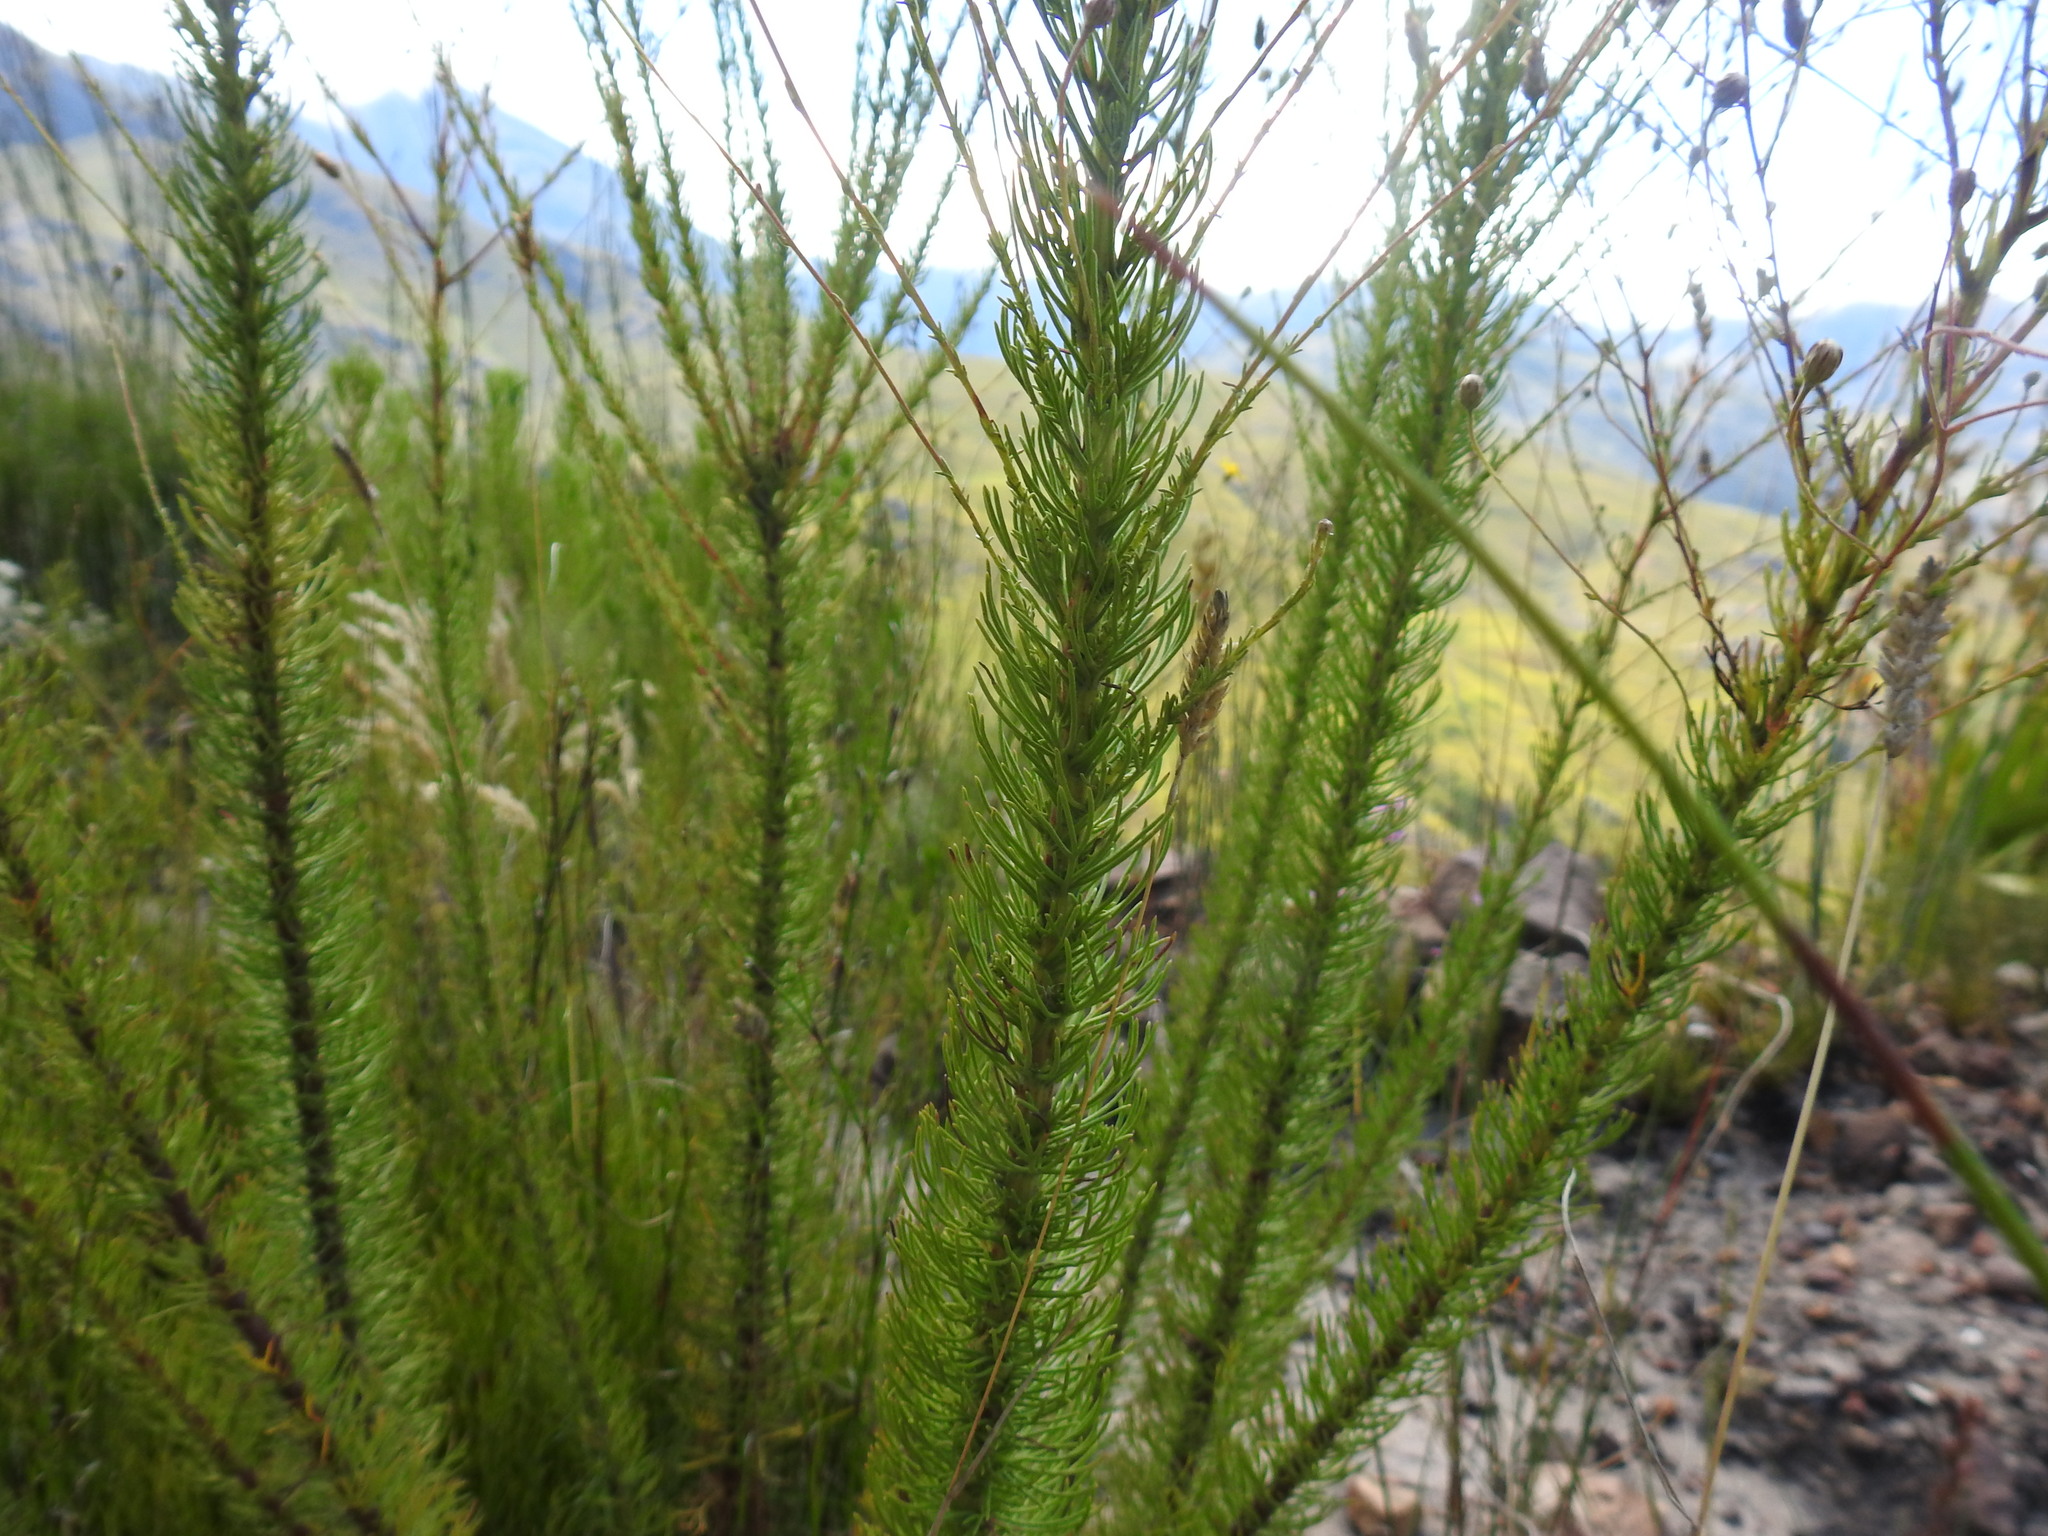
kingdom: Plantae
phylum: Tracheophyta
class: Magnoliopsida
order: Asterales
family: Asteraceae
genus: Ursinia
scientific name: Ursinia punctata
